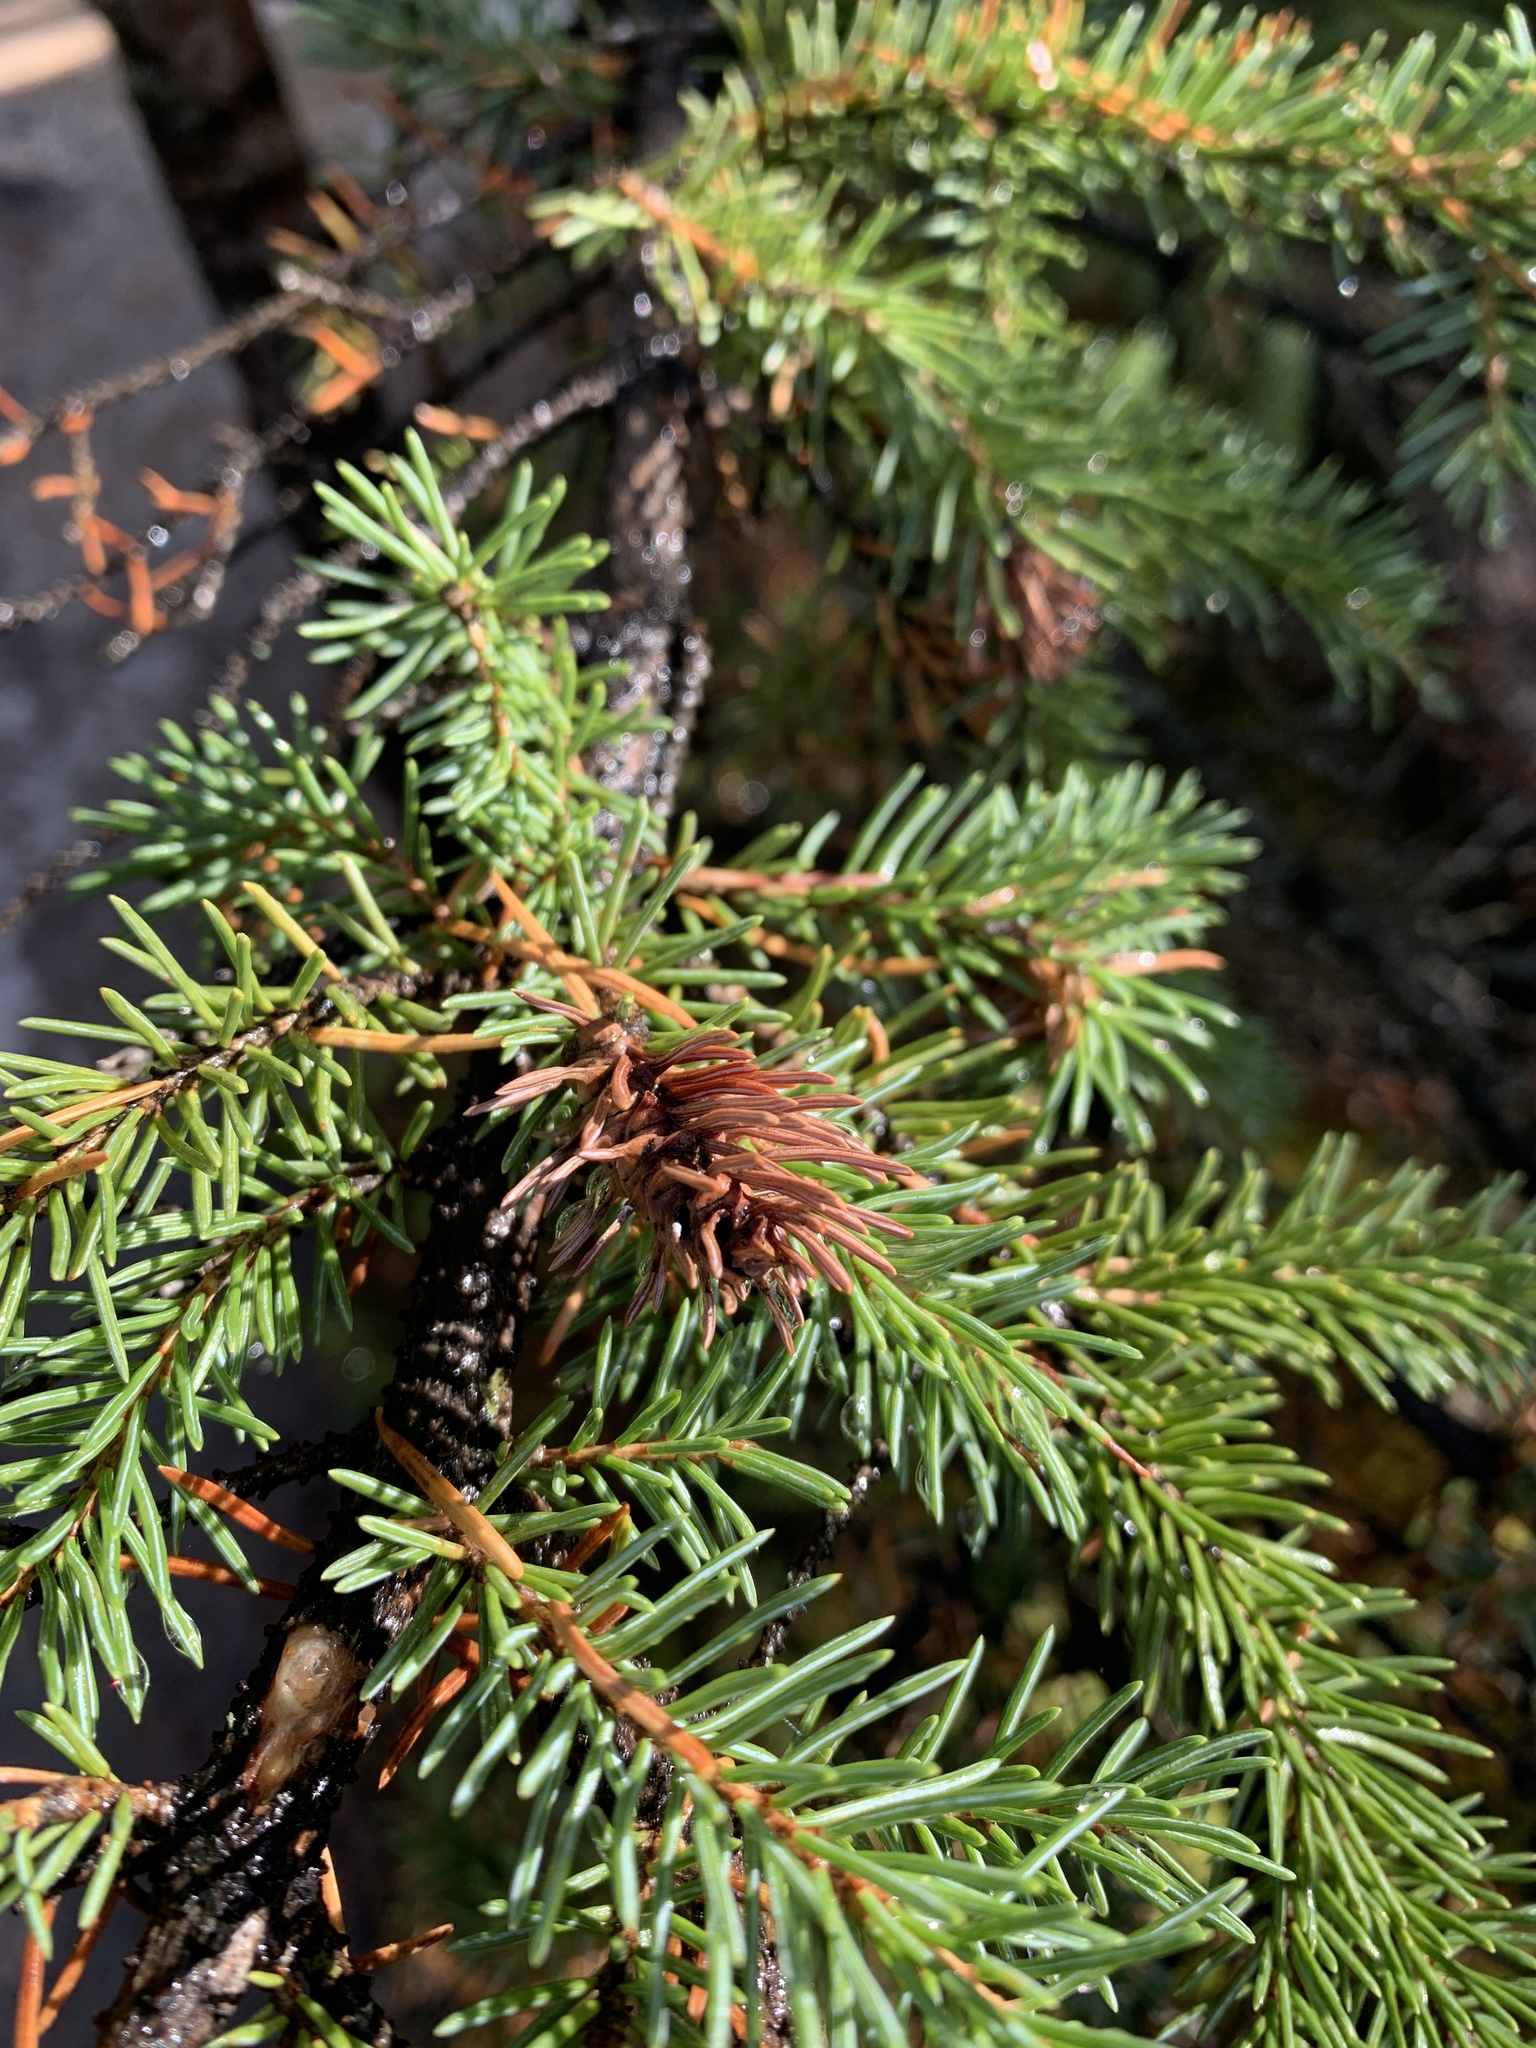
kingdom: Animalia
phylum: Arthropoda
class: Insecta
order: Hemiptera
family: Adelgidae
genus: Adelges
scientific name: Adelges cooleyi
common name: Cooley spruce gall adelgid
